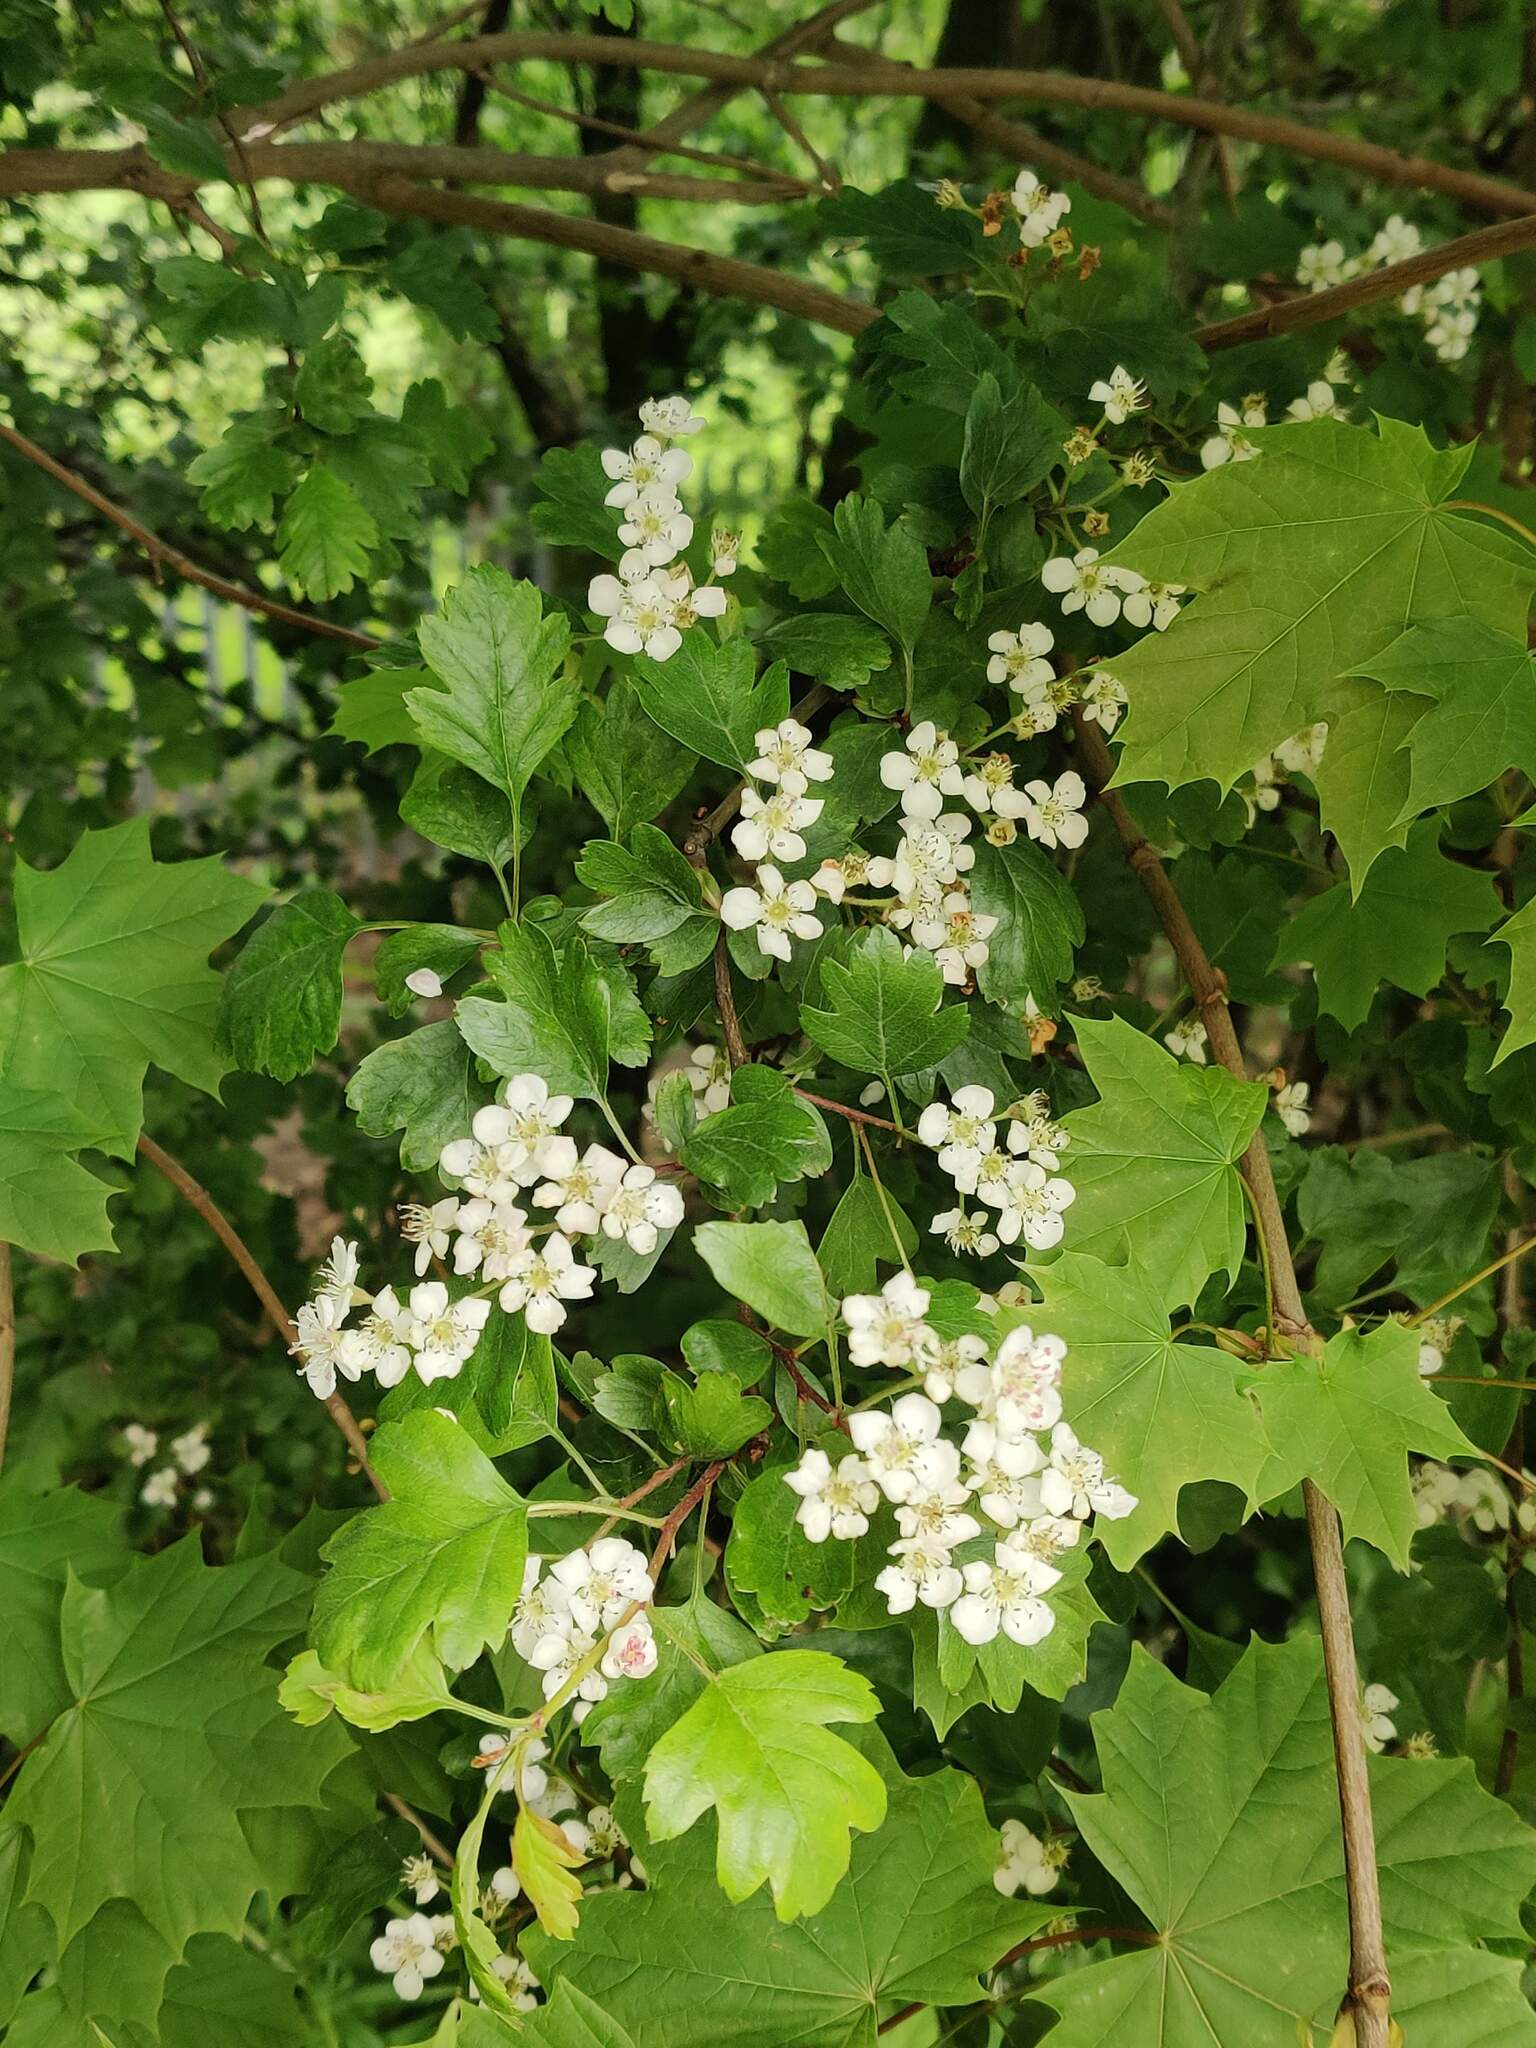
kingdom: Plantae
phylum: Tracheophyta
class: Magnoliopsida
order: Rosales
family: Rosaceae
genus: Crataegus
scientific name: Crataegus monogyna
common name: Hawthorn
